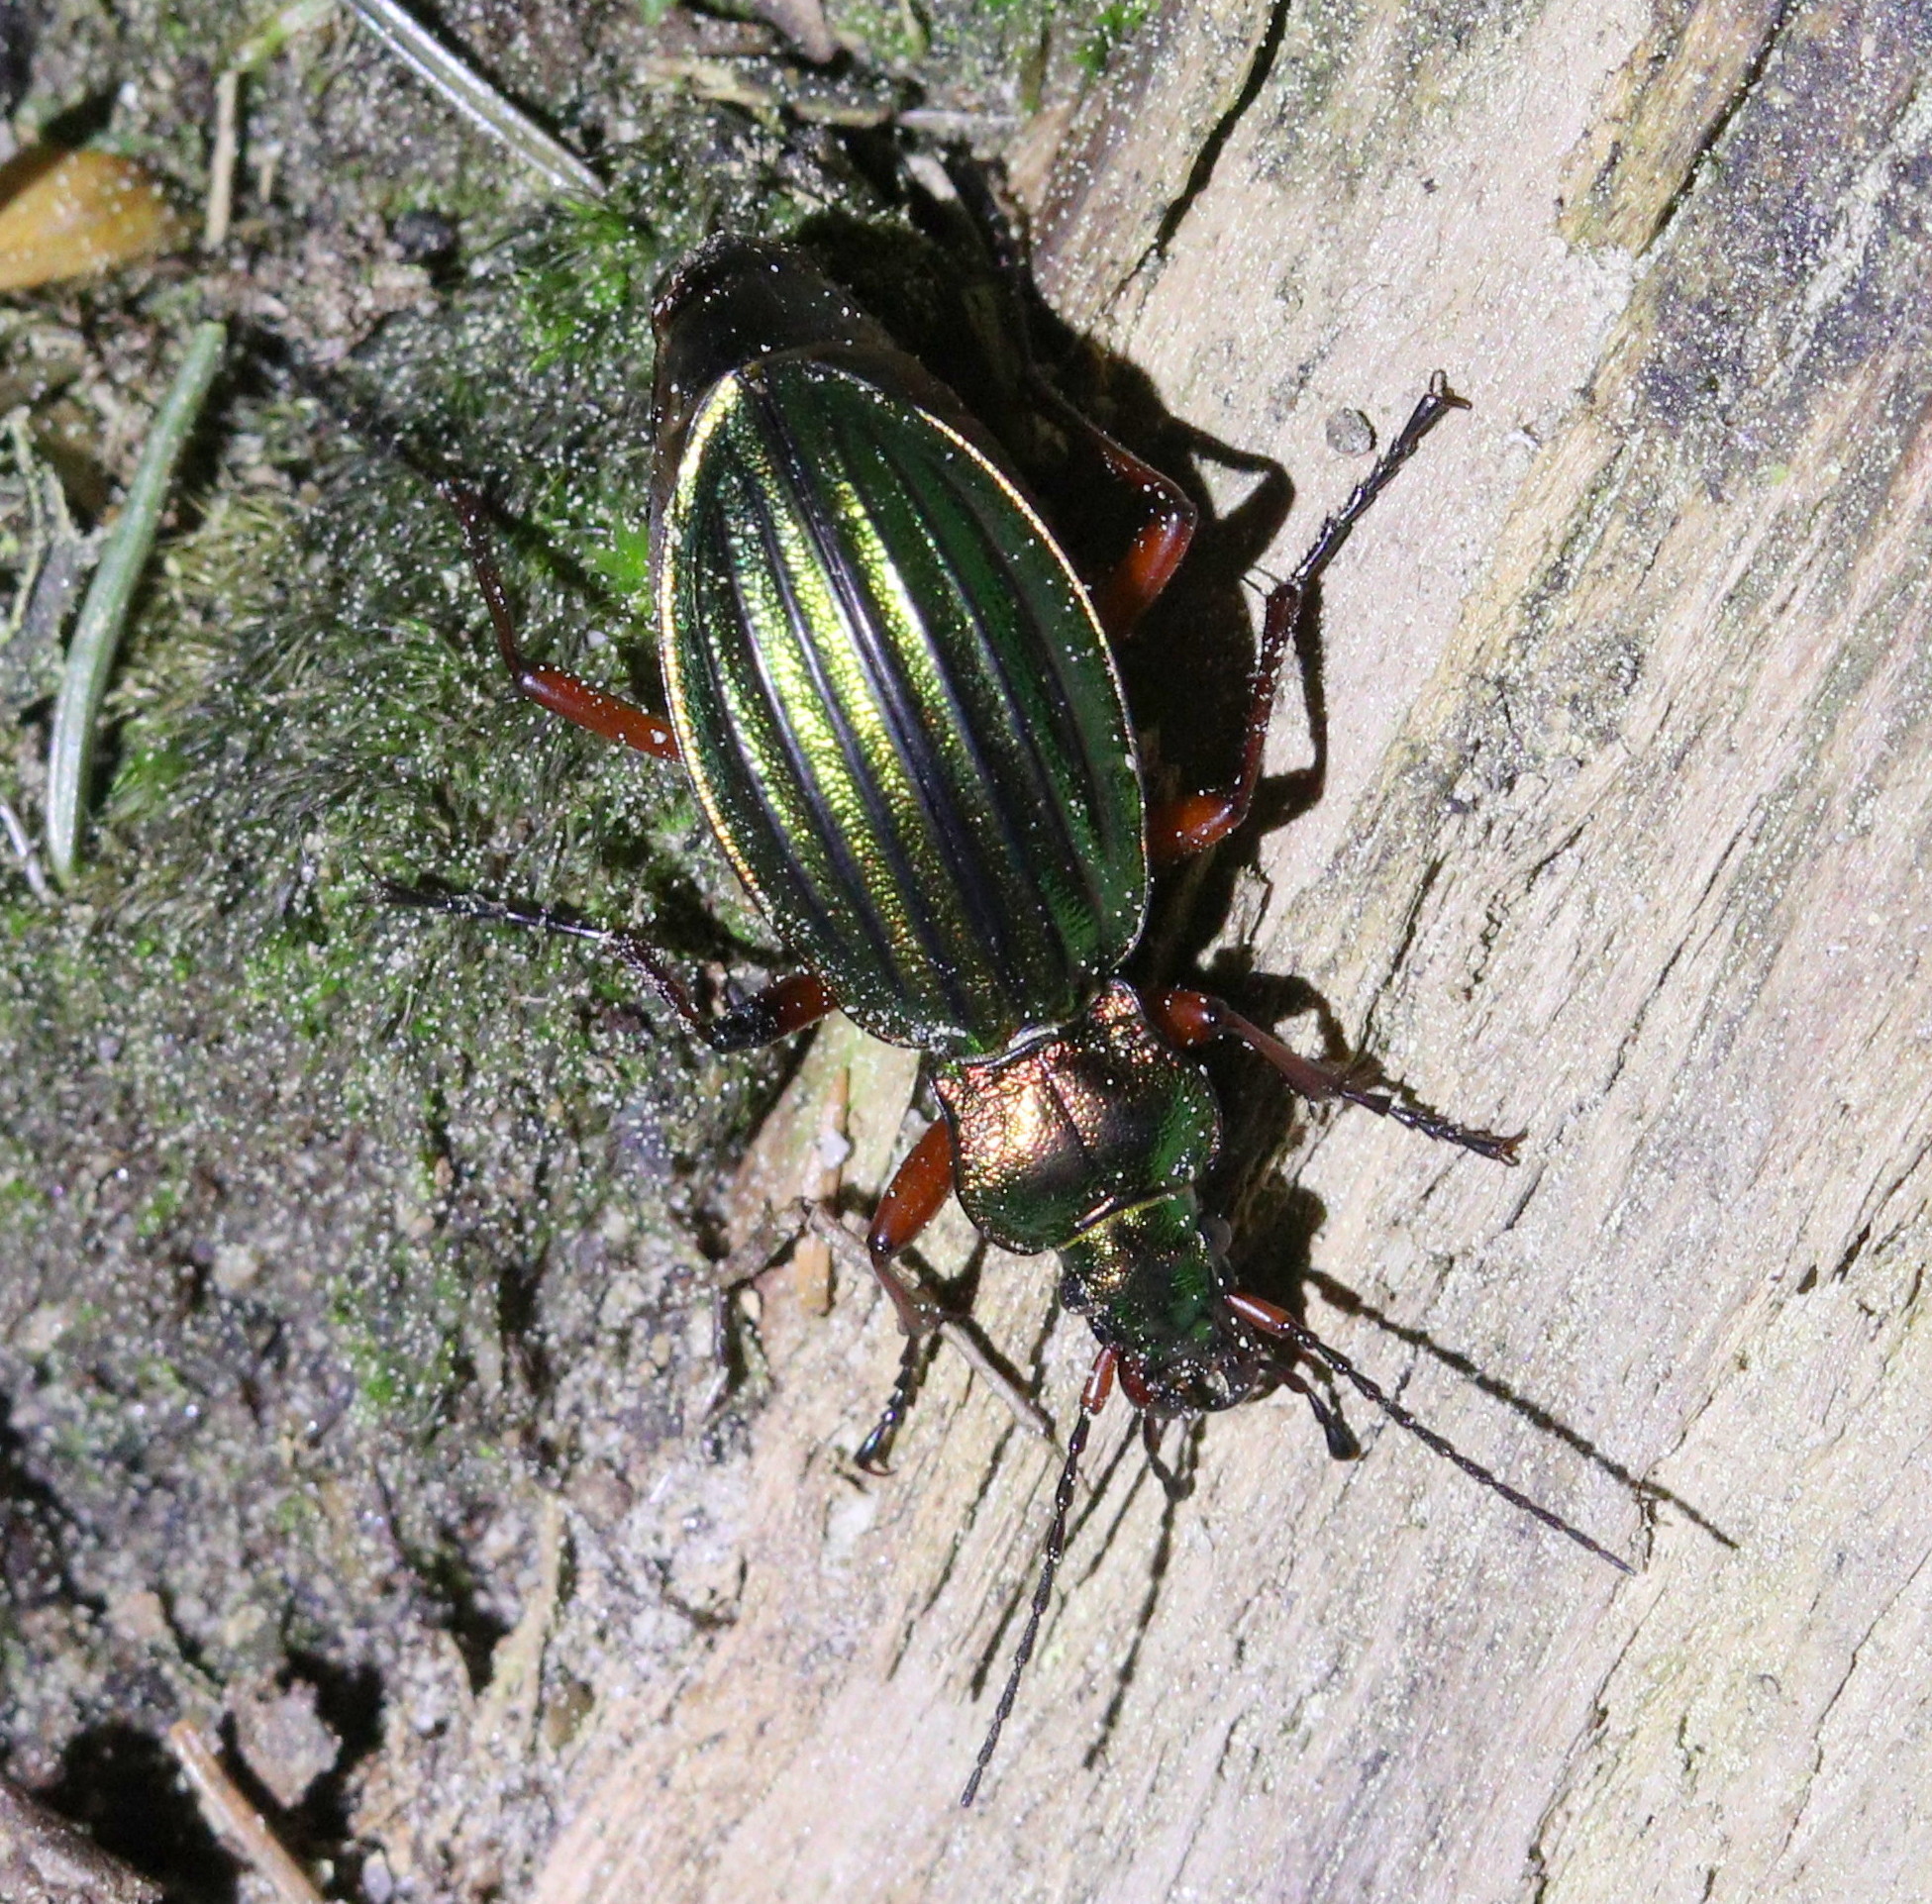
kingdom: Animalia
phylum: Arthropoda
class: Insecta
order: Coleoptera
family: Carabidae
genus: Carabus
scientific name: Carabus auronitens
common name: Carabus auronitens
